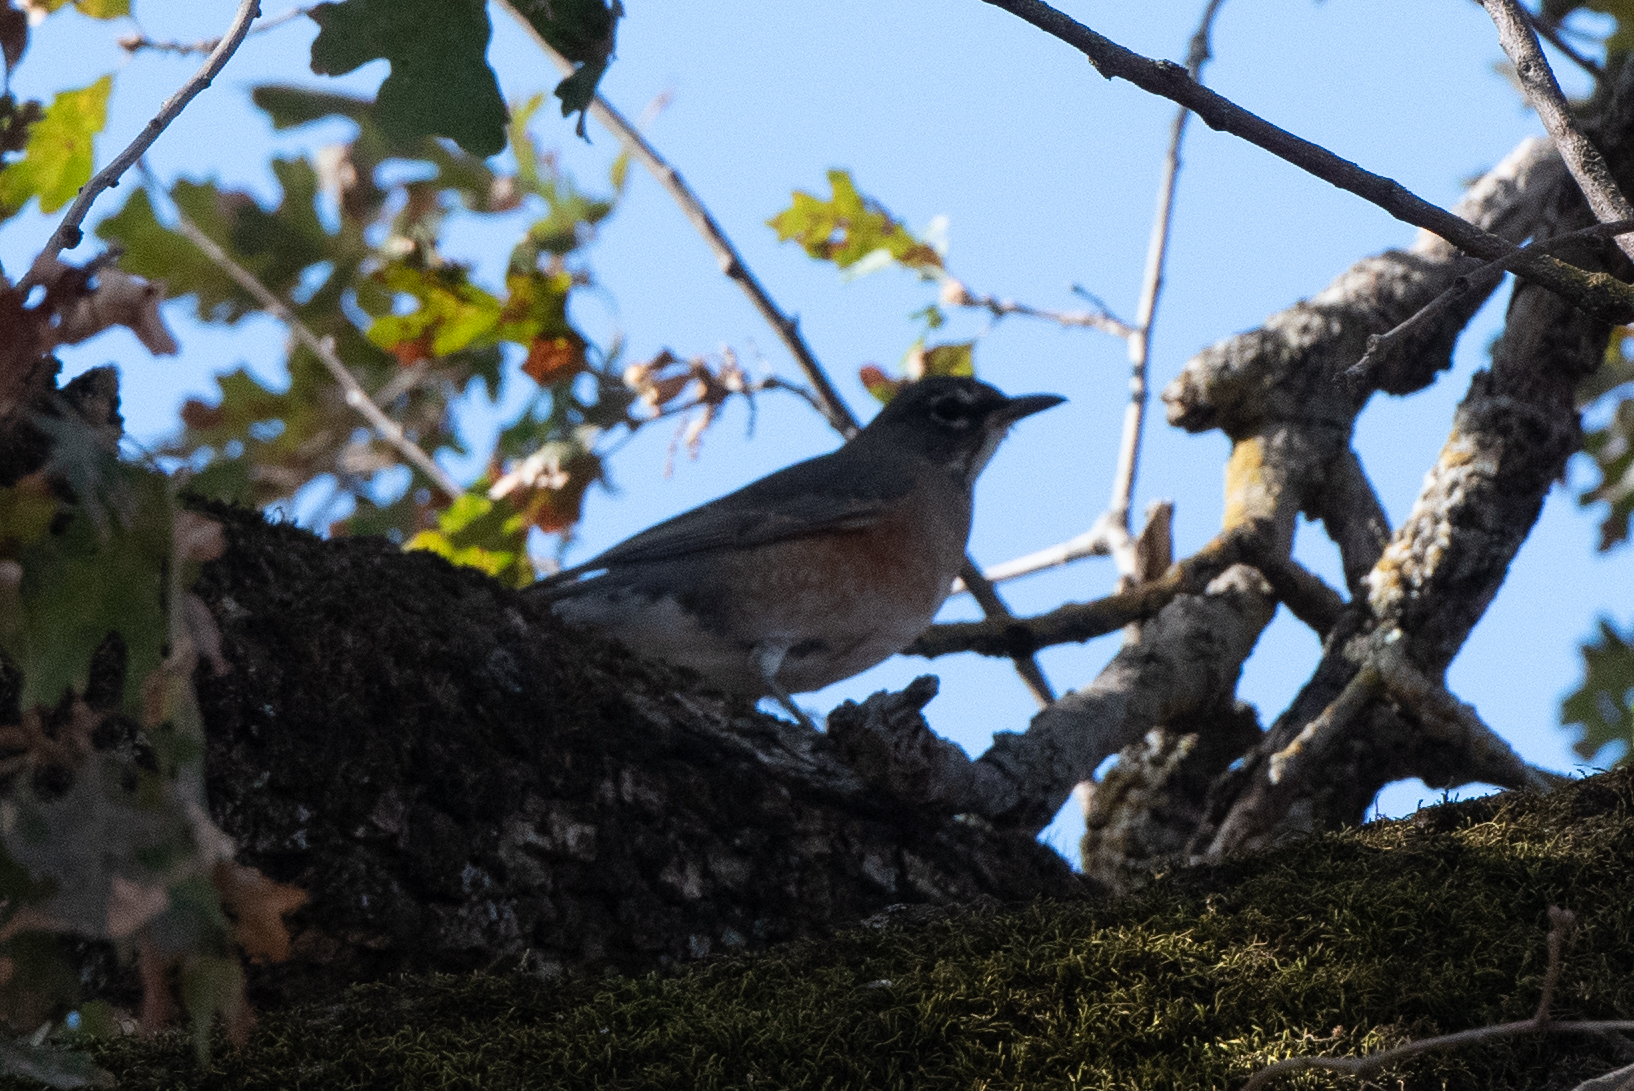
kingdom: Animalia
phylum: Chordata
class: Aves
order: Passeriformes
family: Turdidae
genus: Turdus
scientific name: Turdus migratorius
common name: American robin
